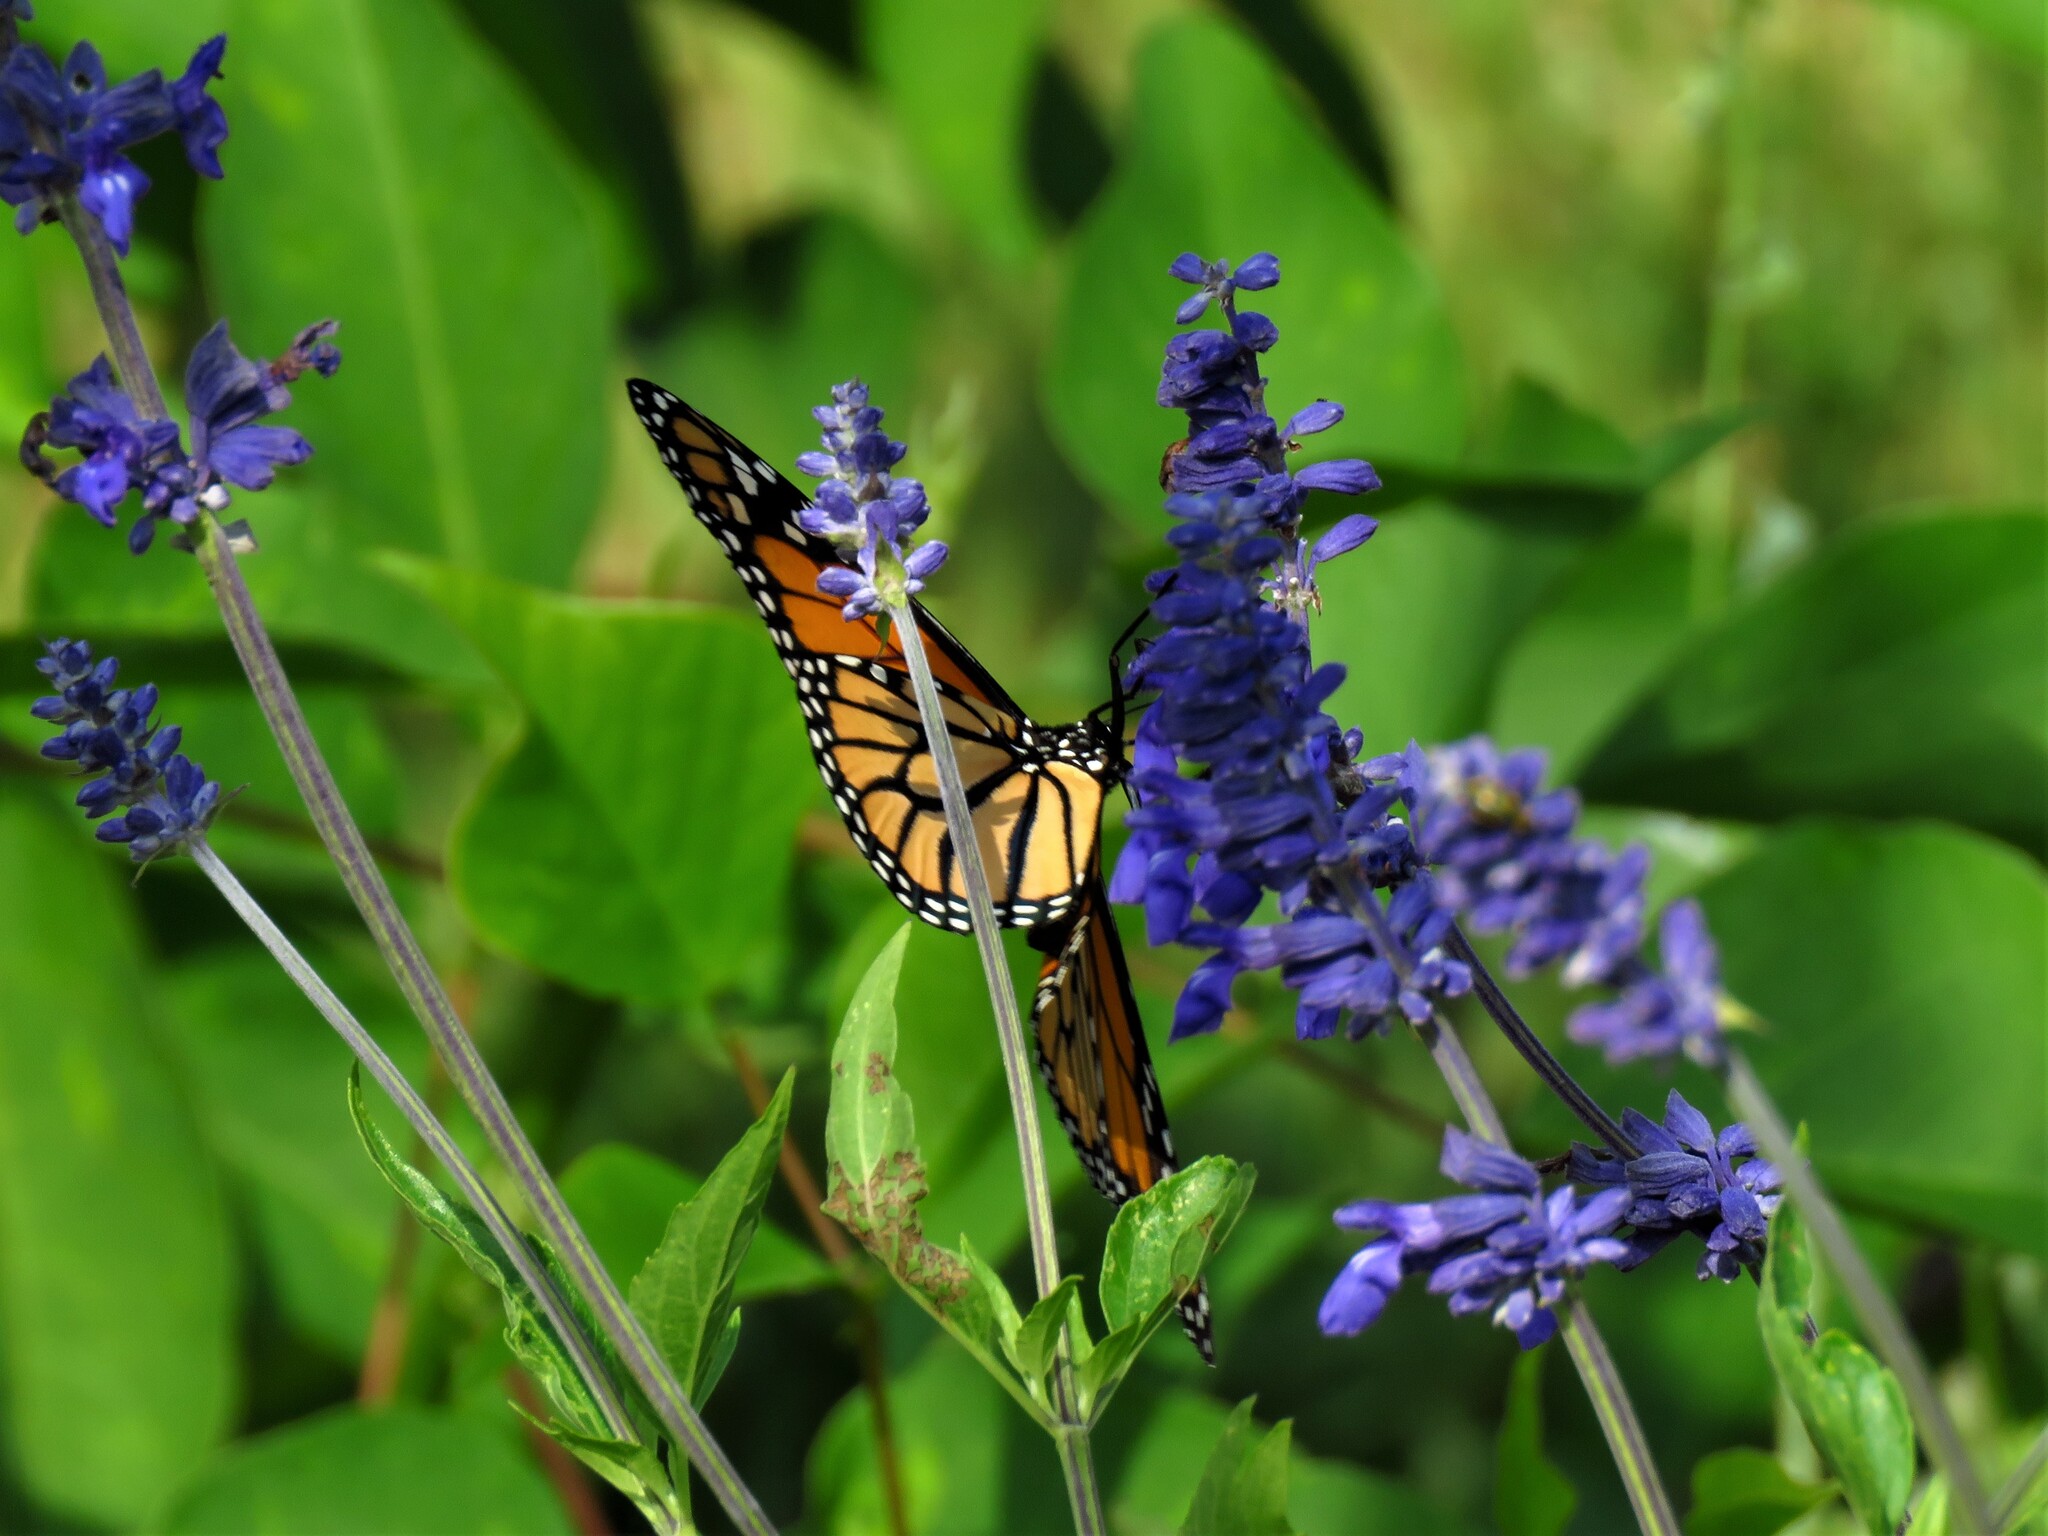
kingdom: Animalia
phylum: Arthropoda
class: Insecta
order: Lepidoptera
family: Nymphalidae
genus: Danaus
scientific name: Danaus plexippus
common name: Monarch
